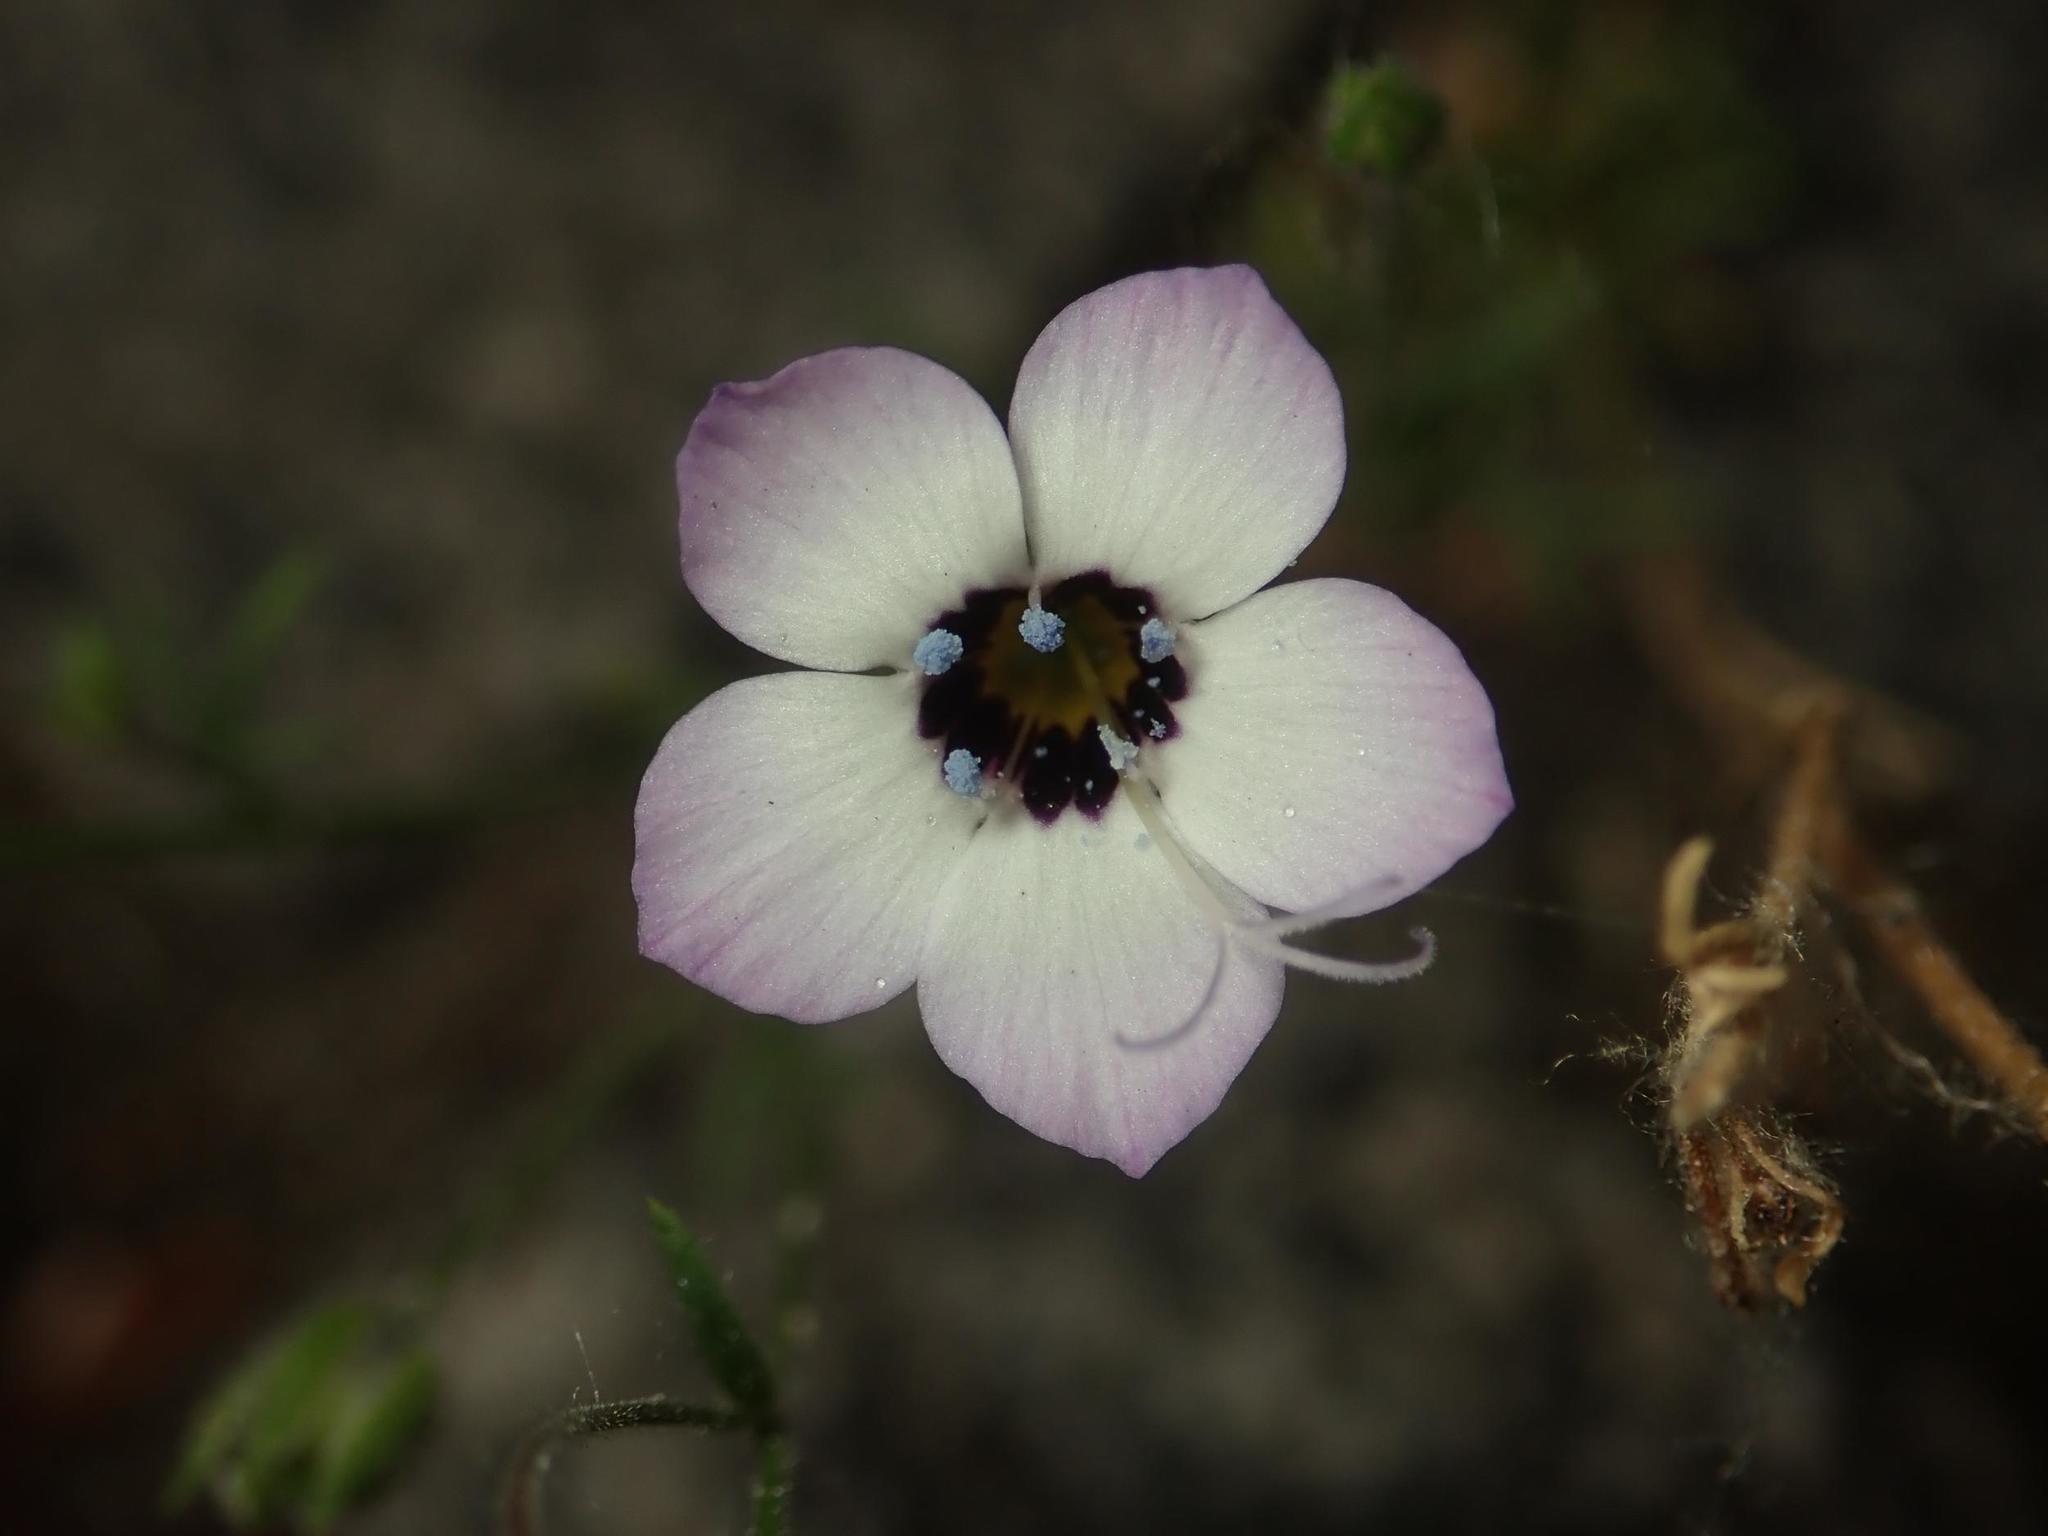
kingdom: Plantae
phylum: Tracheophyta
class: Magnoliopsida
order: Ericales
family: Polemoniaceae
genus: Gilia
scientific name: Gilia tricolor
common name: Bird's-eyes
